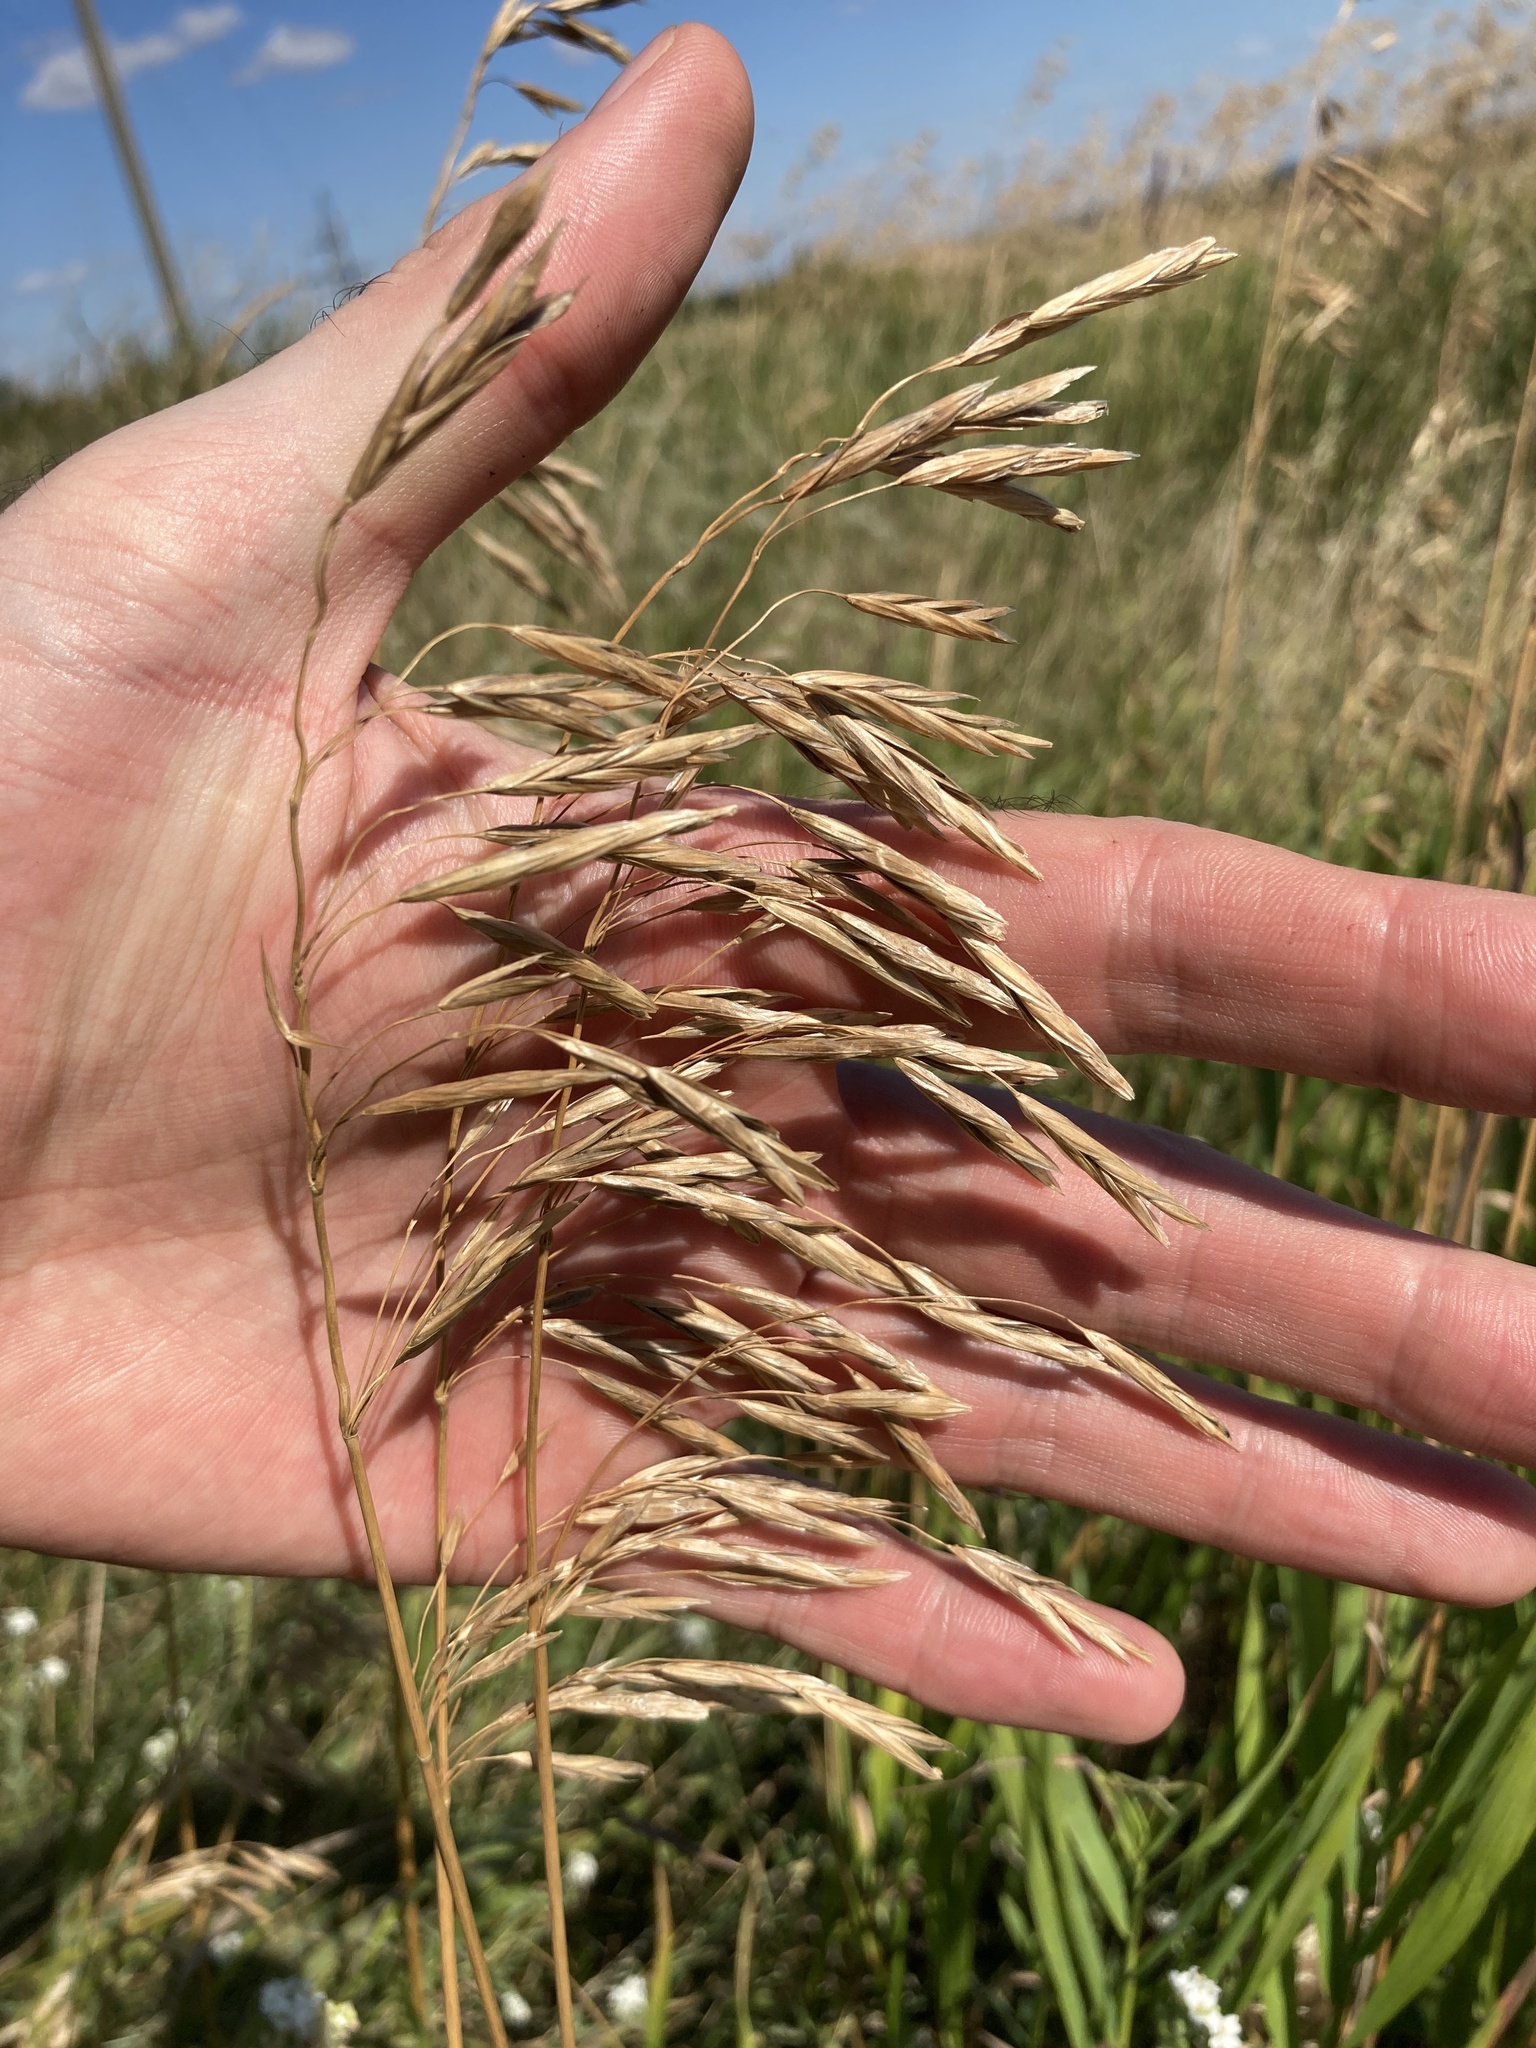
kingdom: Plantae
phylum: Tracheophyta
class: Liliopsida
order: Poales
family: Poaceae
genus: Bromus
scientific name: Bromus inermis
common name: Smooth brome
